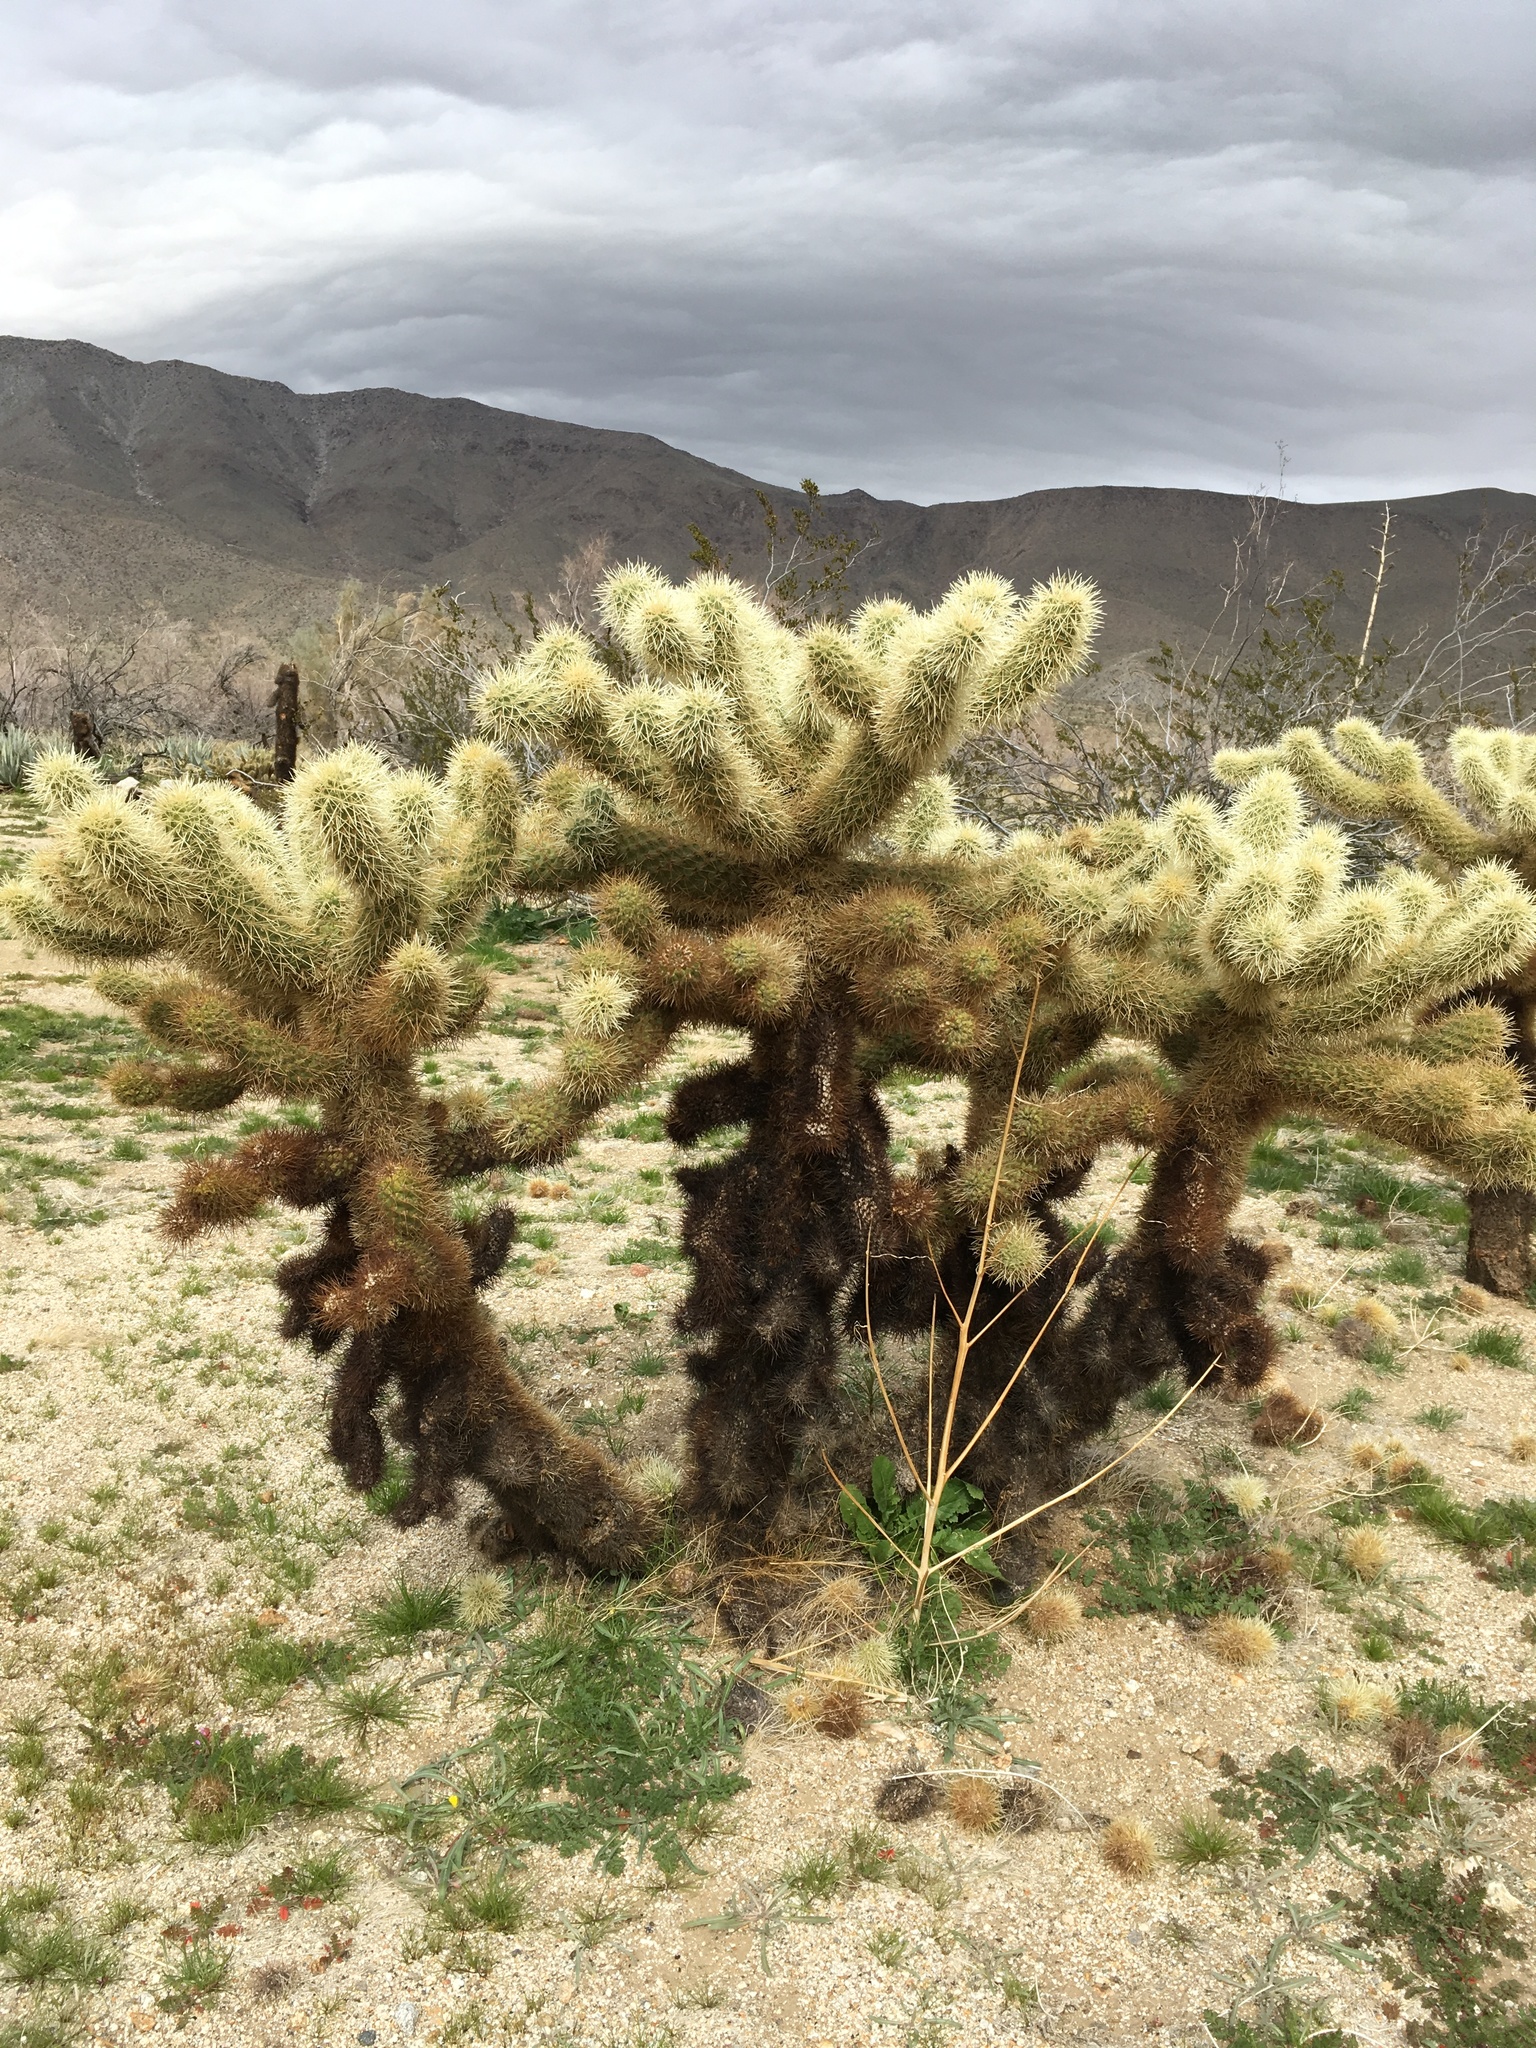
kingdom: Plantae
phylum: Tracheophyta
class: Magnoliopsida
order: Caryophyllales
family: Cactaceae
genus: Cylindropuntia
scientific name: Cylindropuntia fosbergii
